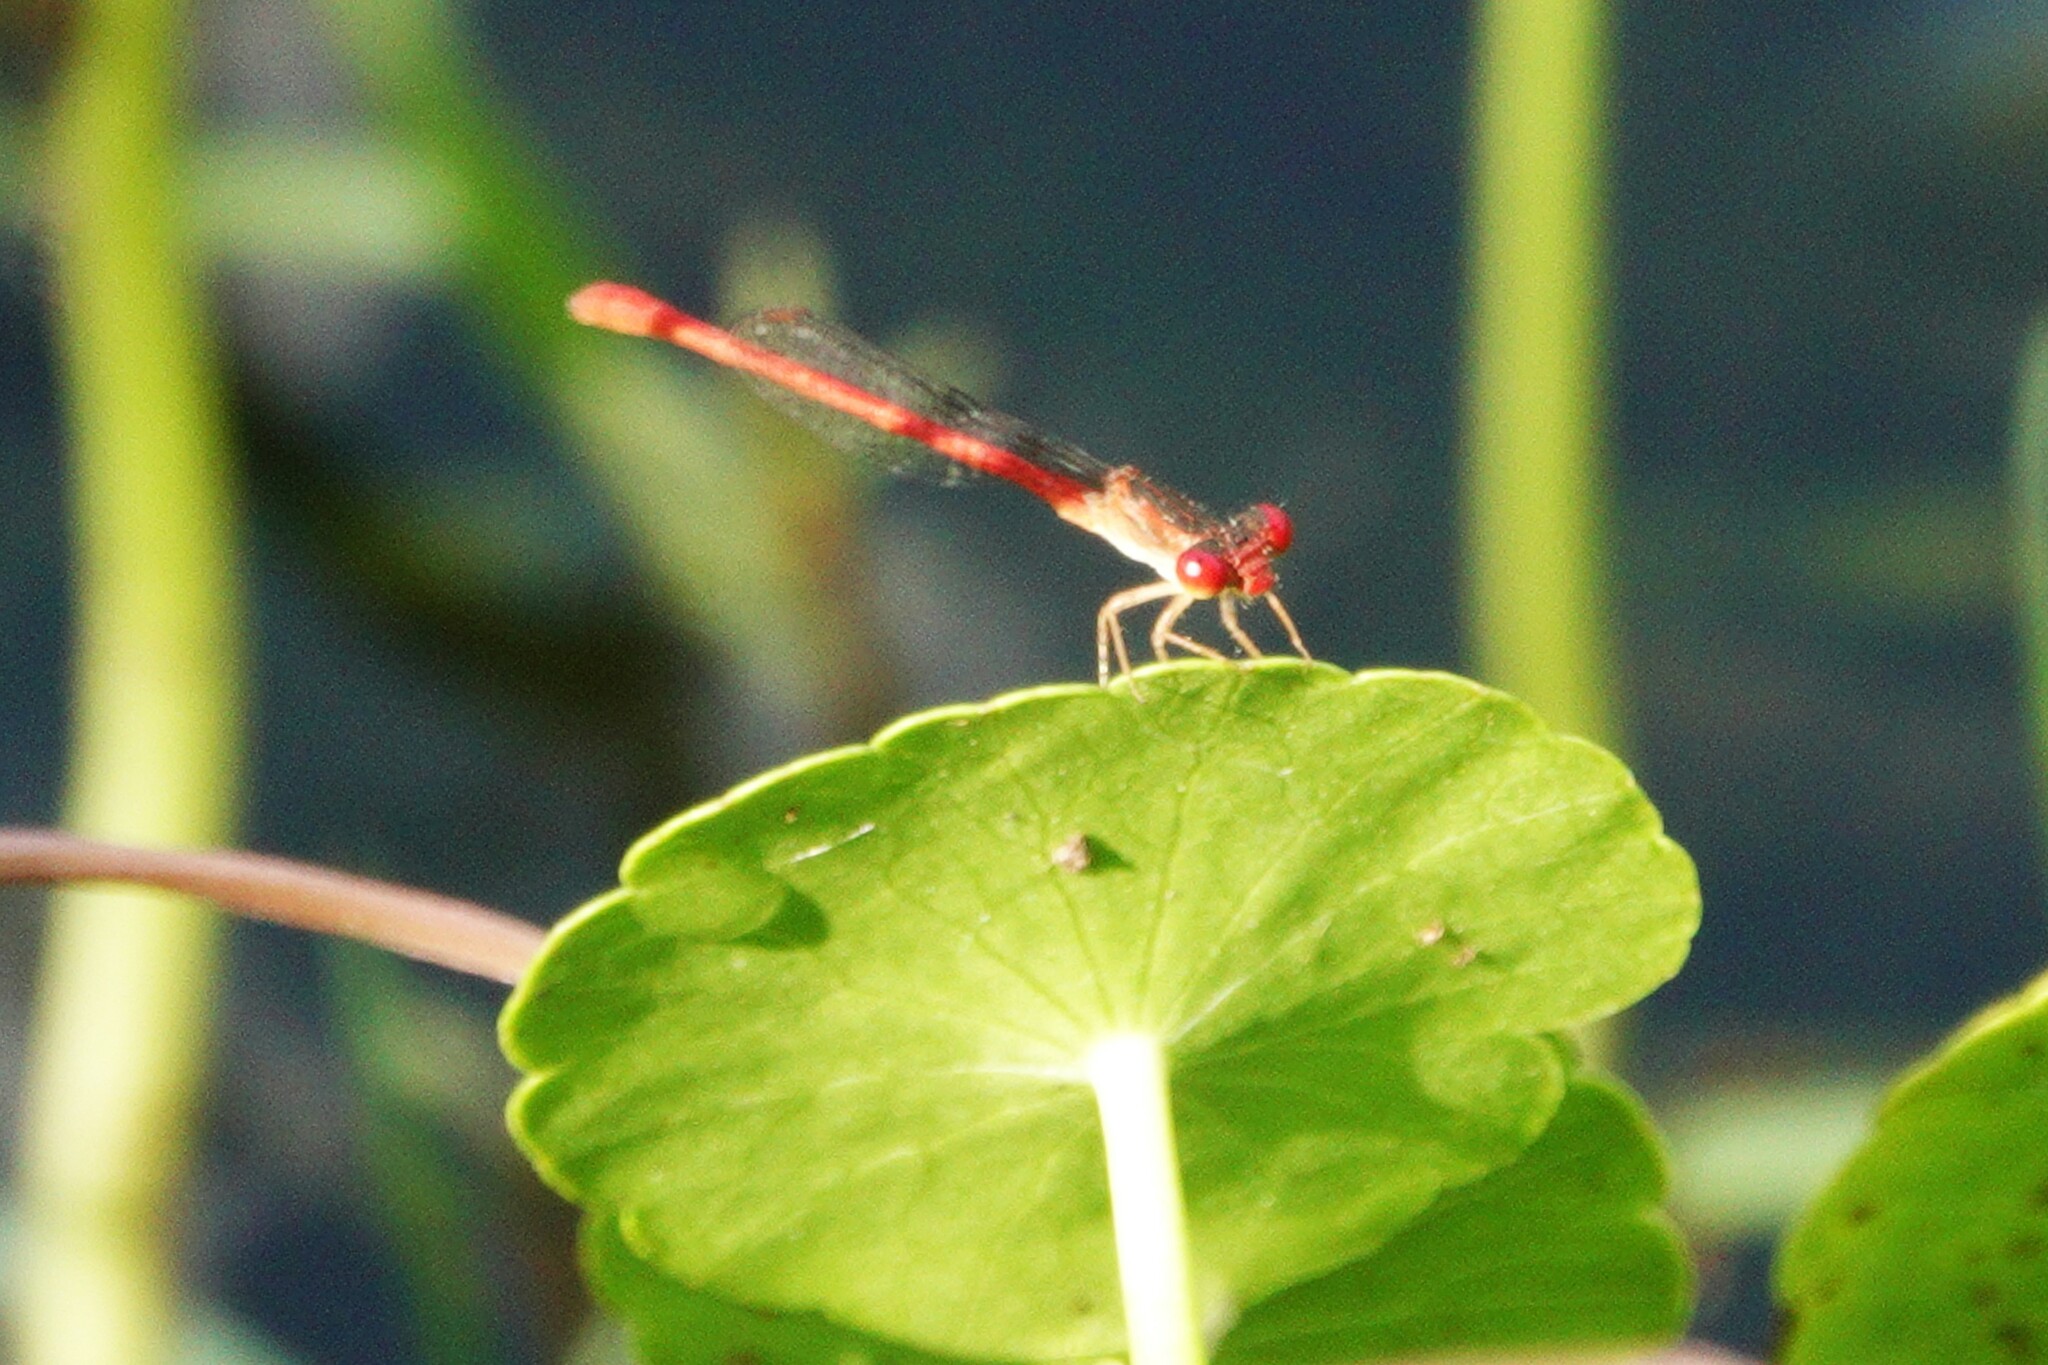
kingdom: Animalia
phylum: Arthropoda
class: Insecta
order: Odonata
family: Libellulidae
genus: Libellula
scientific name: Libellula vibrans
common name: Great blue skimmer
